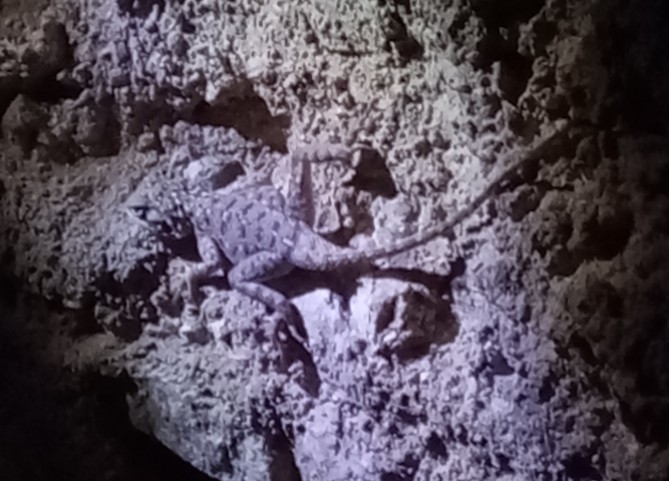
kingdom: Animalia
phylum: Chordata
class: Squamata
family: Agamidae
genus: Agama
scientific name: Agama tassiliensis
